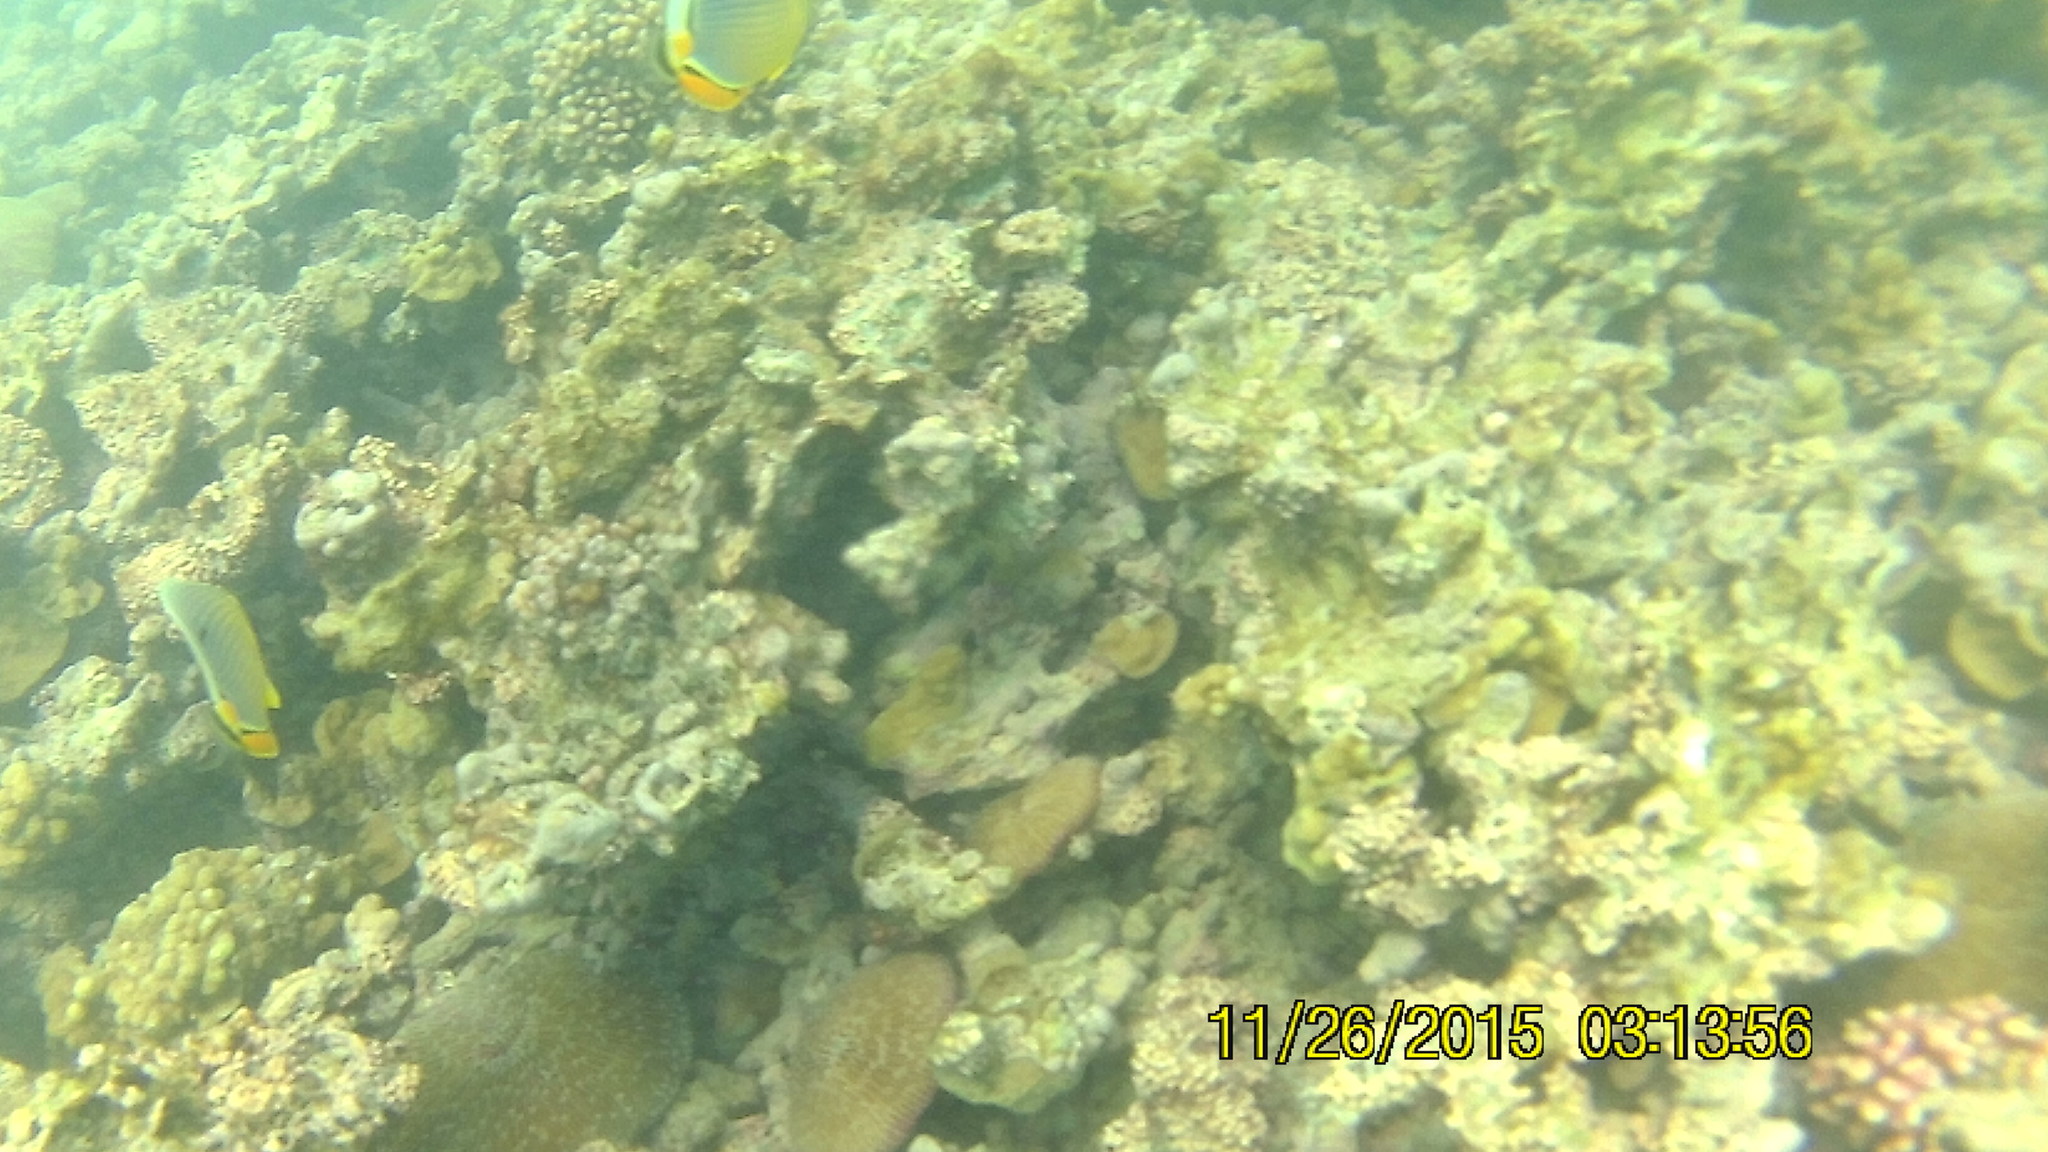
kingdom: Animalia
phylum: Chordata
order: Perciformes
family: Chaetodontidae
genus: Chaetodon
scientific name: Chaetodon trifasciatus
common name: Redfin butterflyfish
